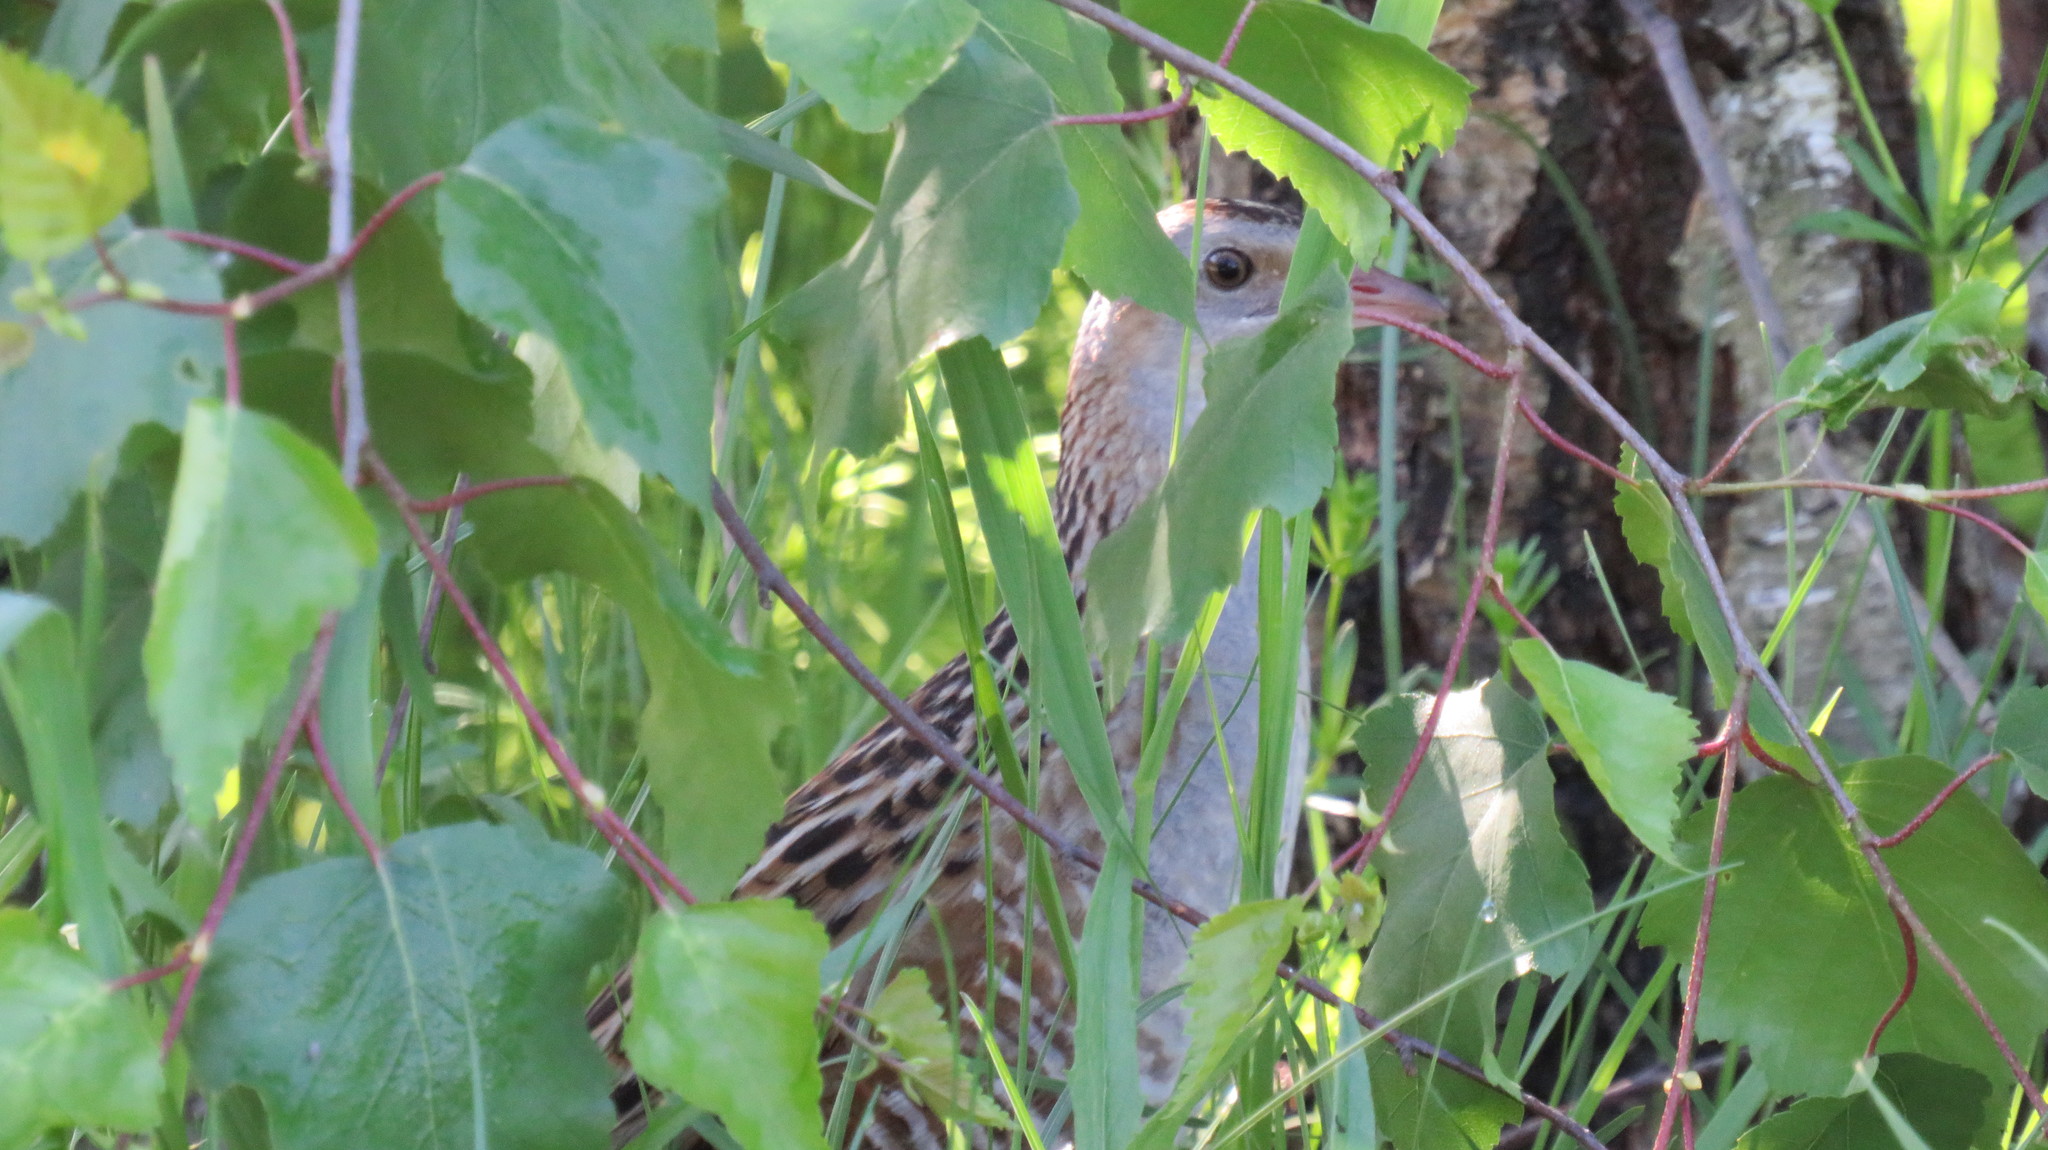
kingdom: Animalia
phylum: Chordata
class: Aves
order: Gruiformes
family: Rallidae
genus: Crex
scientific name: Crex crex
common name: Corn crake
